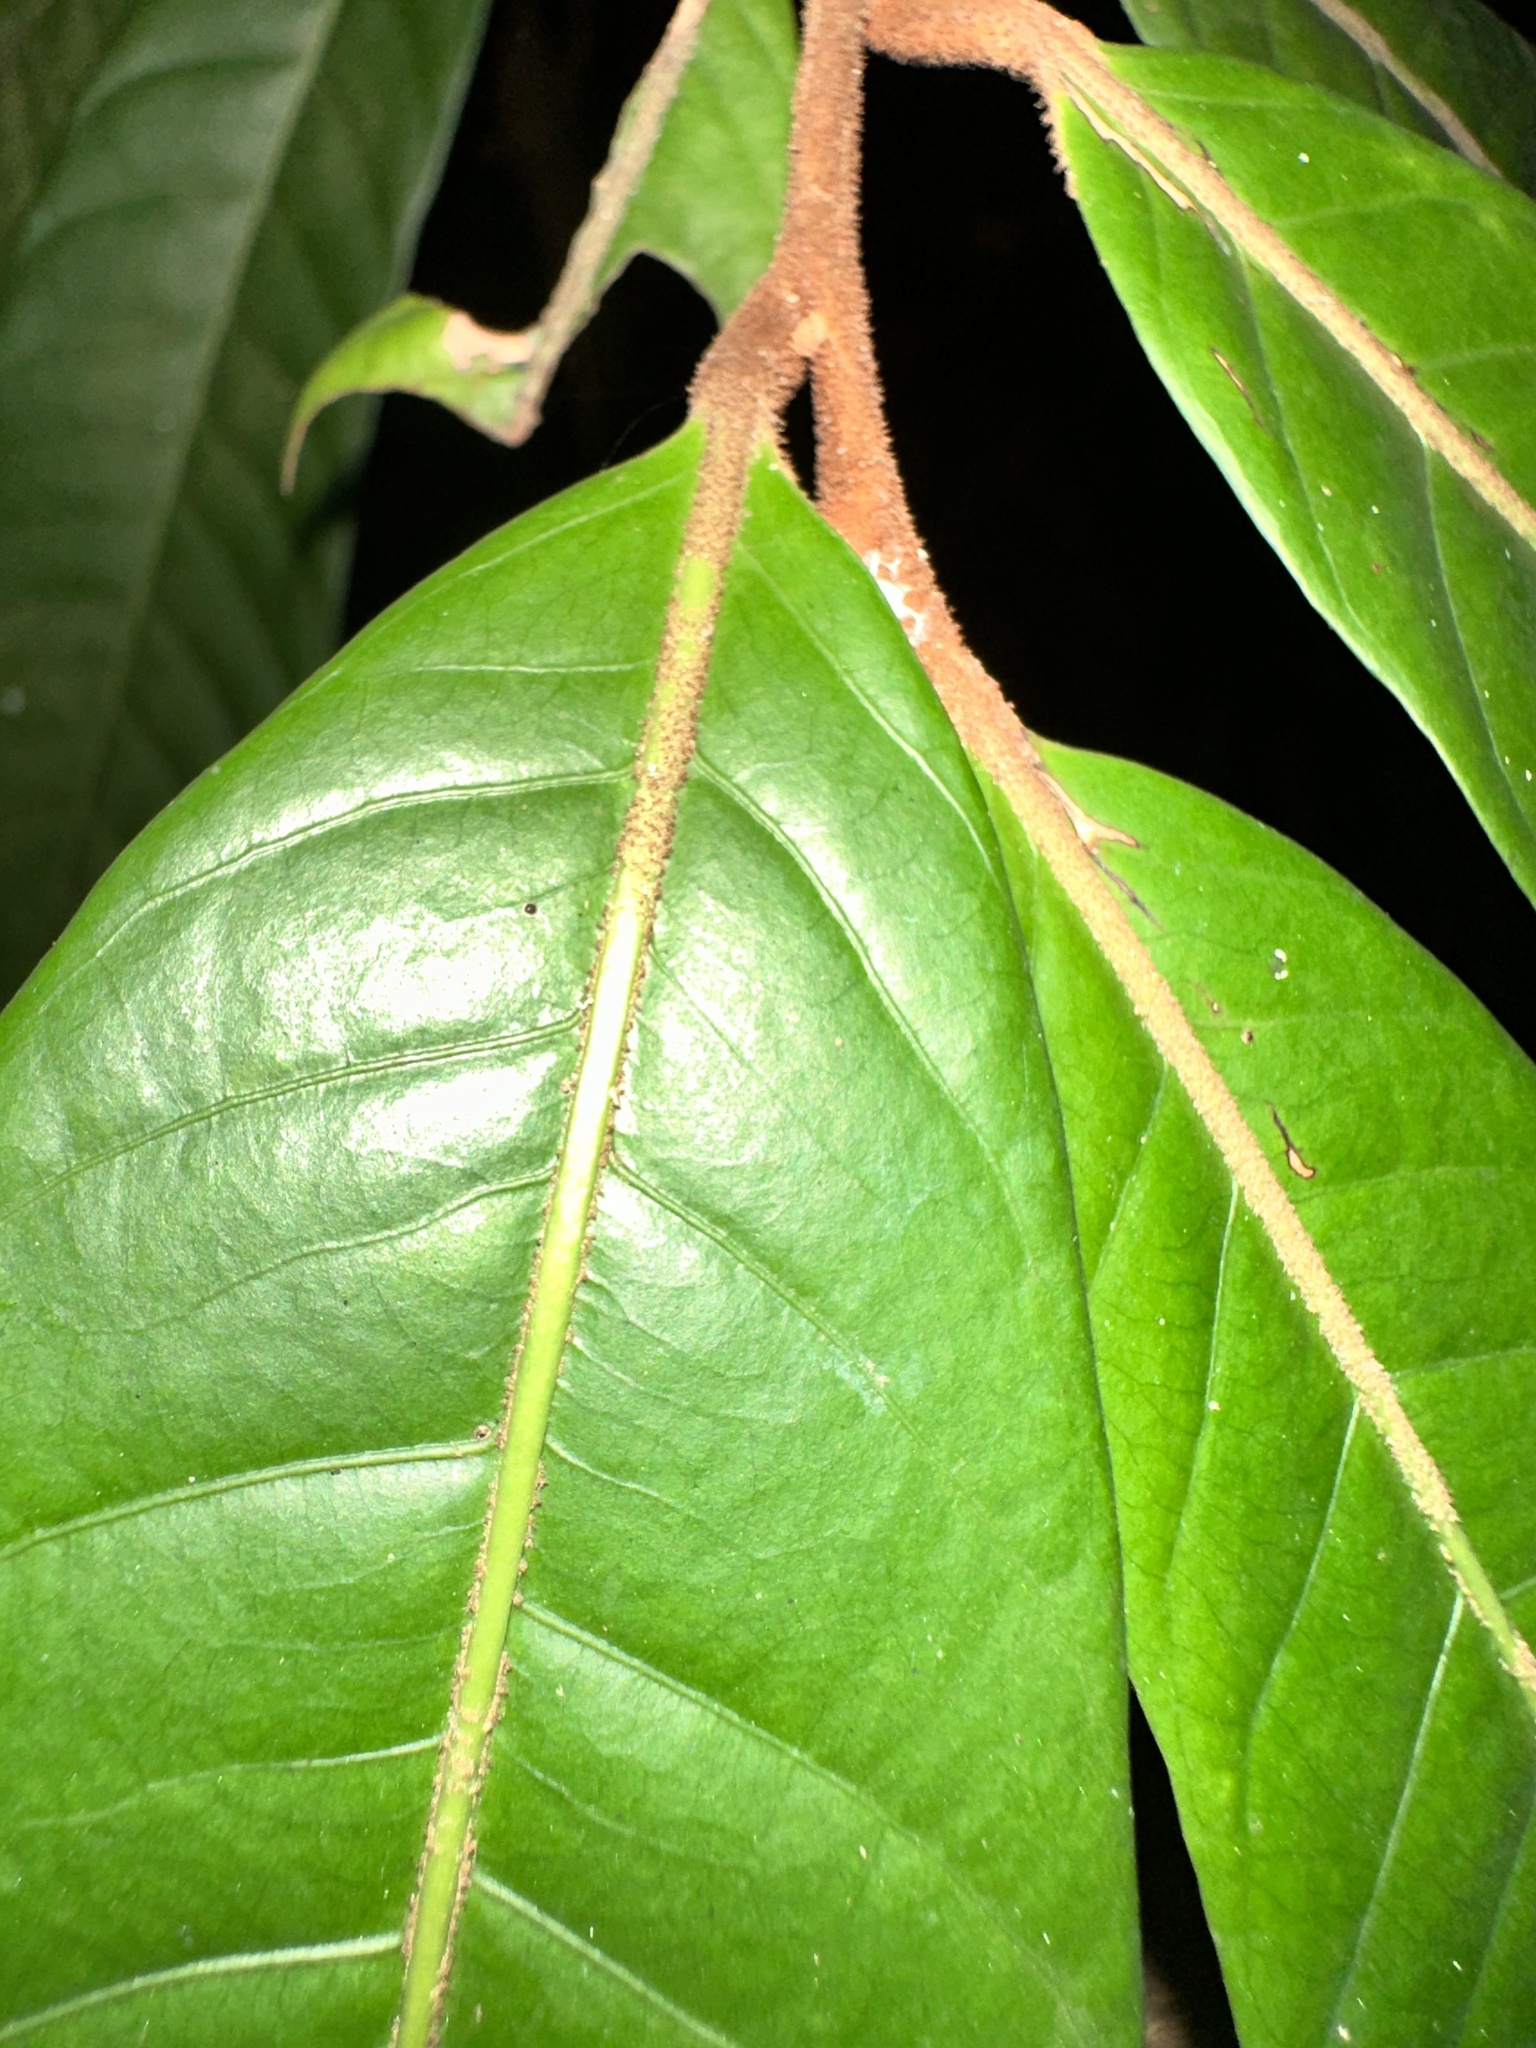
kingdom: Plantae
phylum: Tracheophyta
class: Magnoliopsida
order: Magnoliales
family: Myristicaceae
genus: Knema
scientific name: Knema latericia
